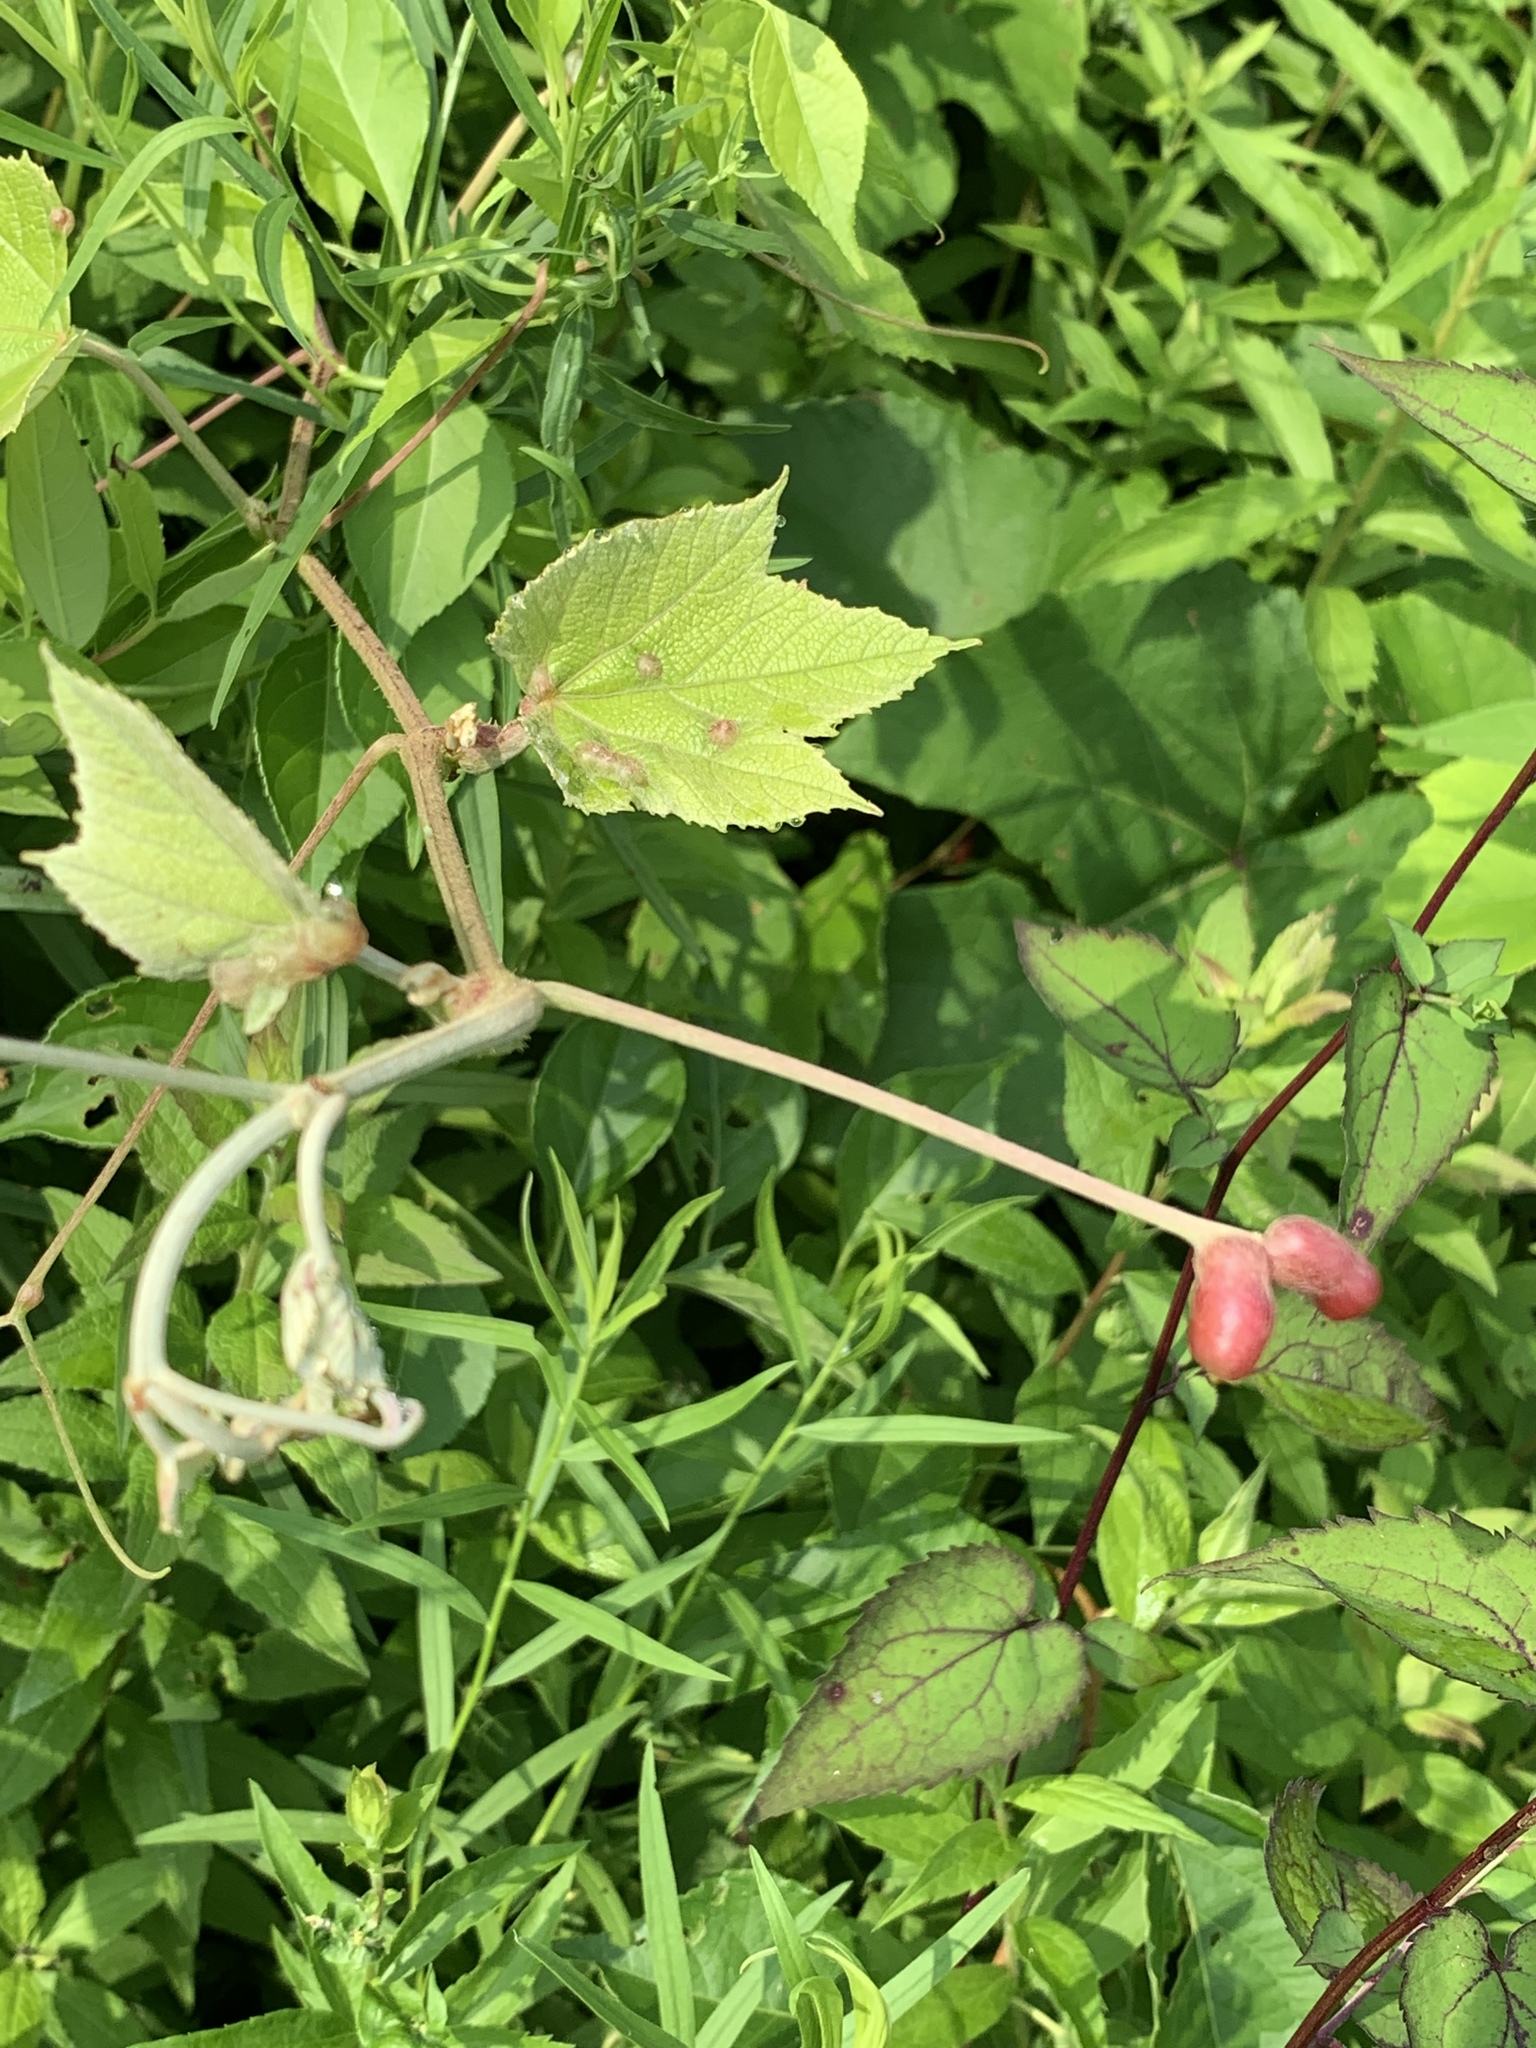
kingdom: Animalia
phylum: Arthropoda
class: Insecta
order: Diptera
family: Cecidomyiidae
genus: Vitisiella
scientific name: Vitisiella brevicauda
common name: Grape tumid gallmaker midge
